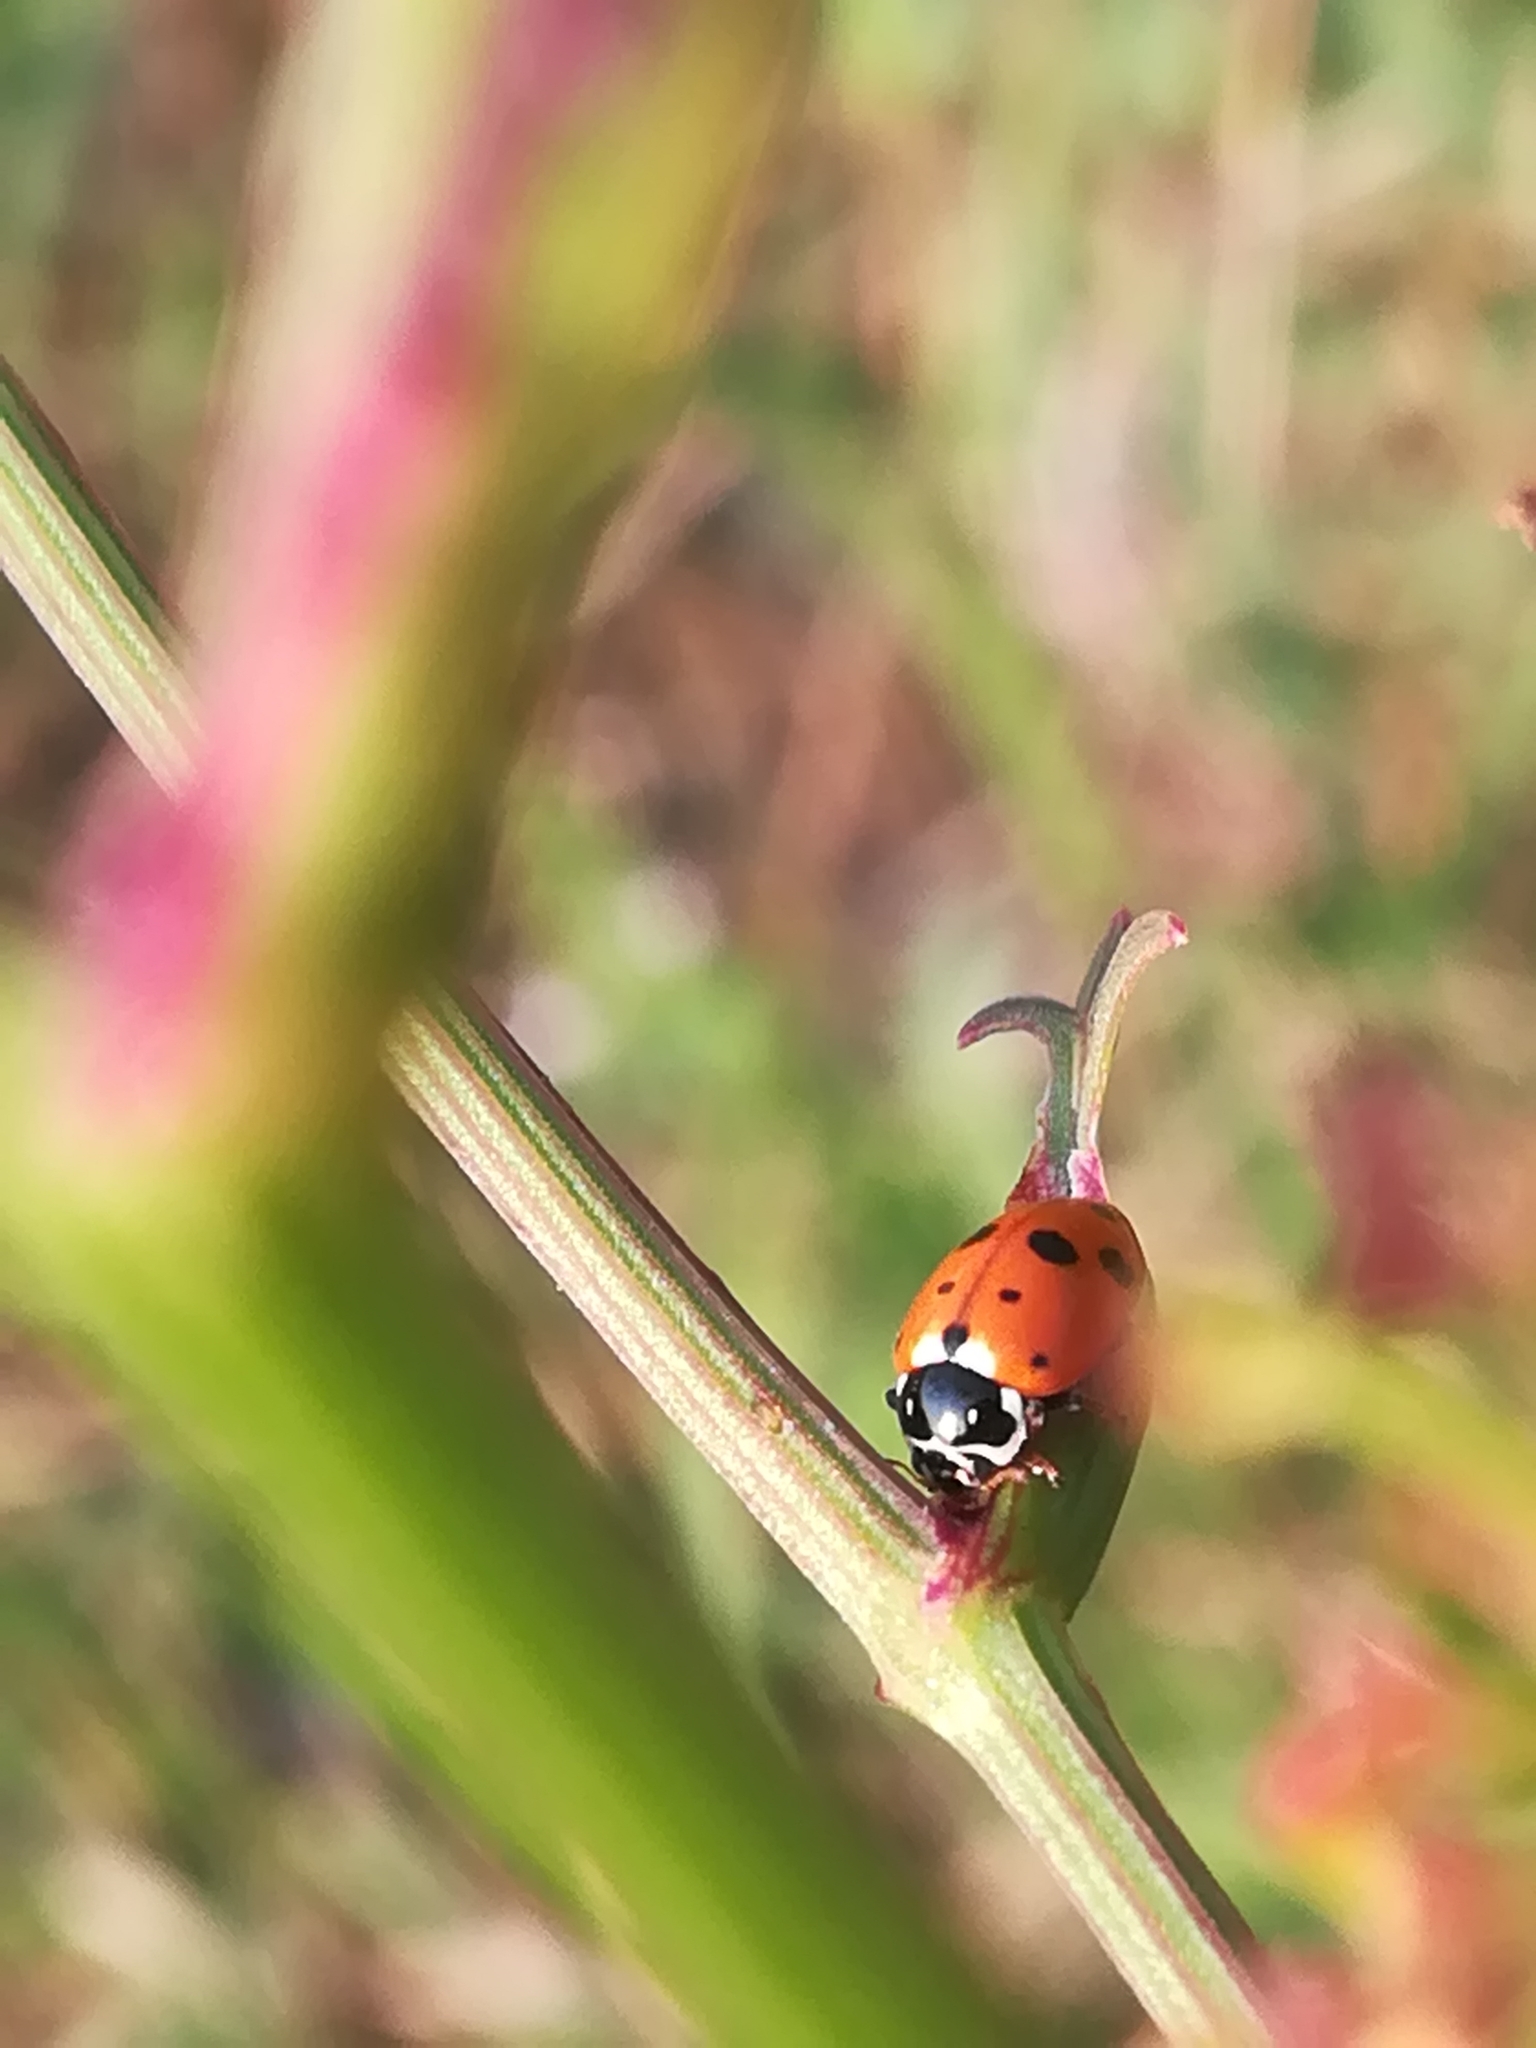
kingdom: Animalia
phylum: Arthropoda
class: Insecta
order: Coleoptera
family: Coccinellidae
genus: Hippodamia
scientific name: Hippodamia variegata
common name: Ladybird beetle
